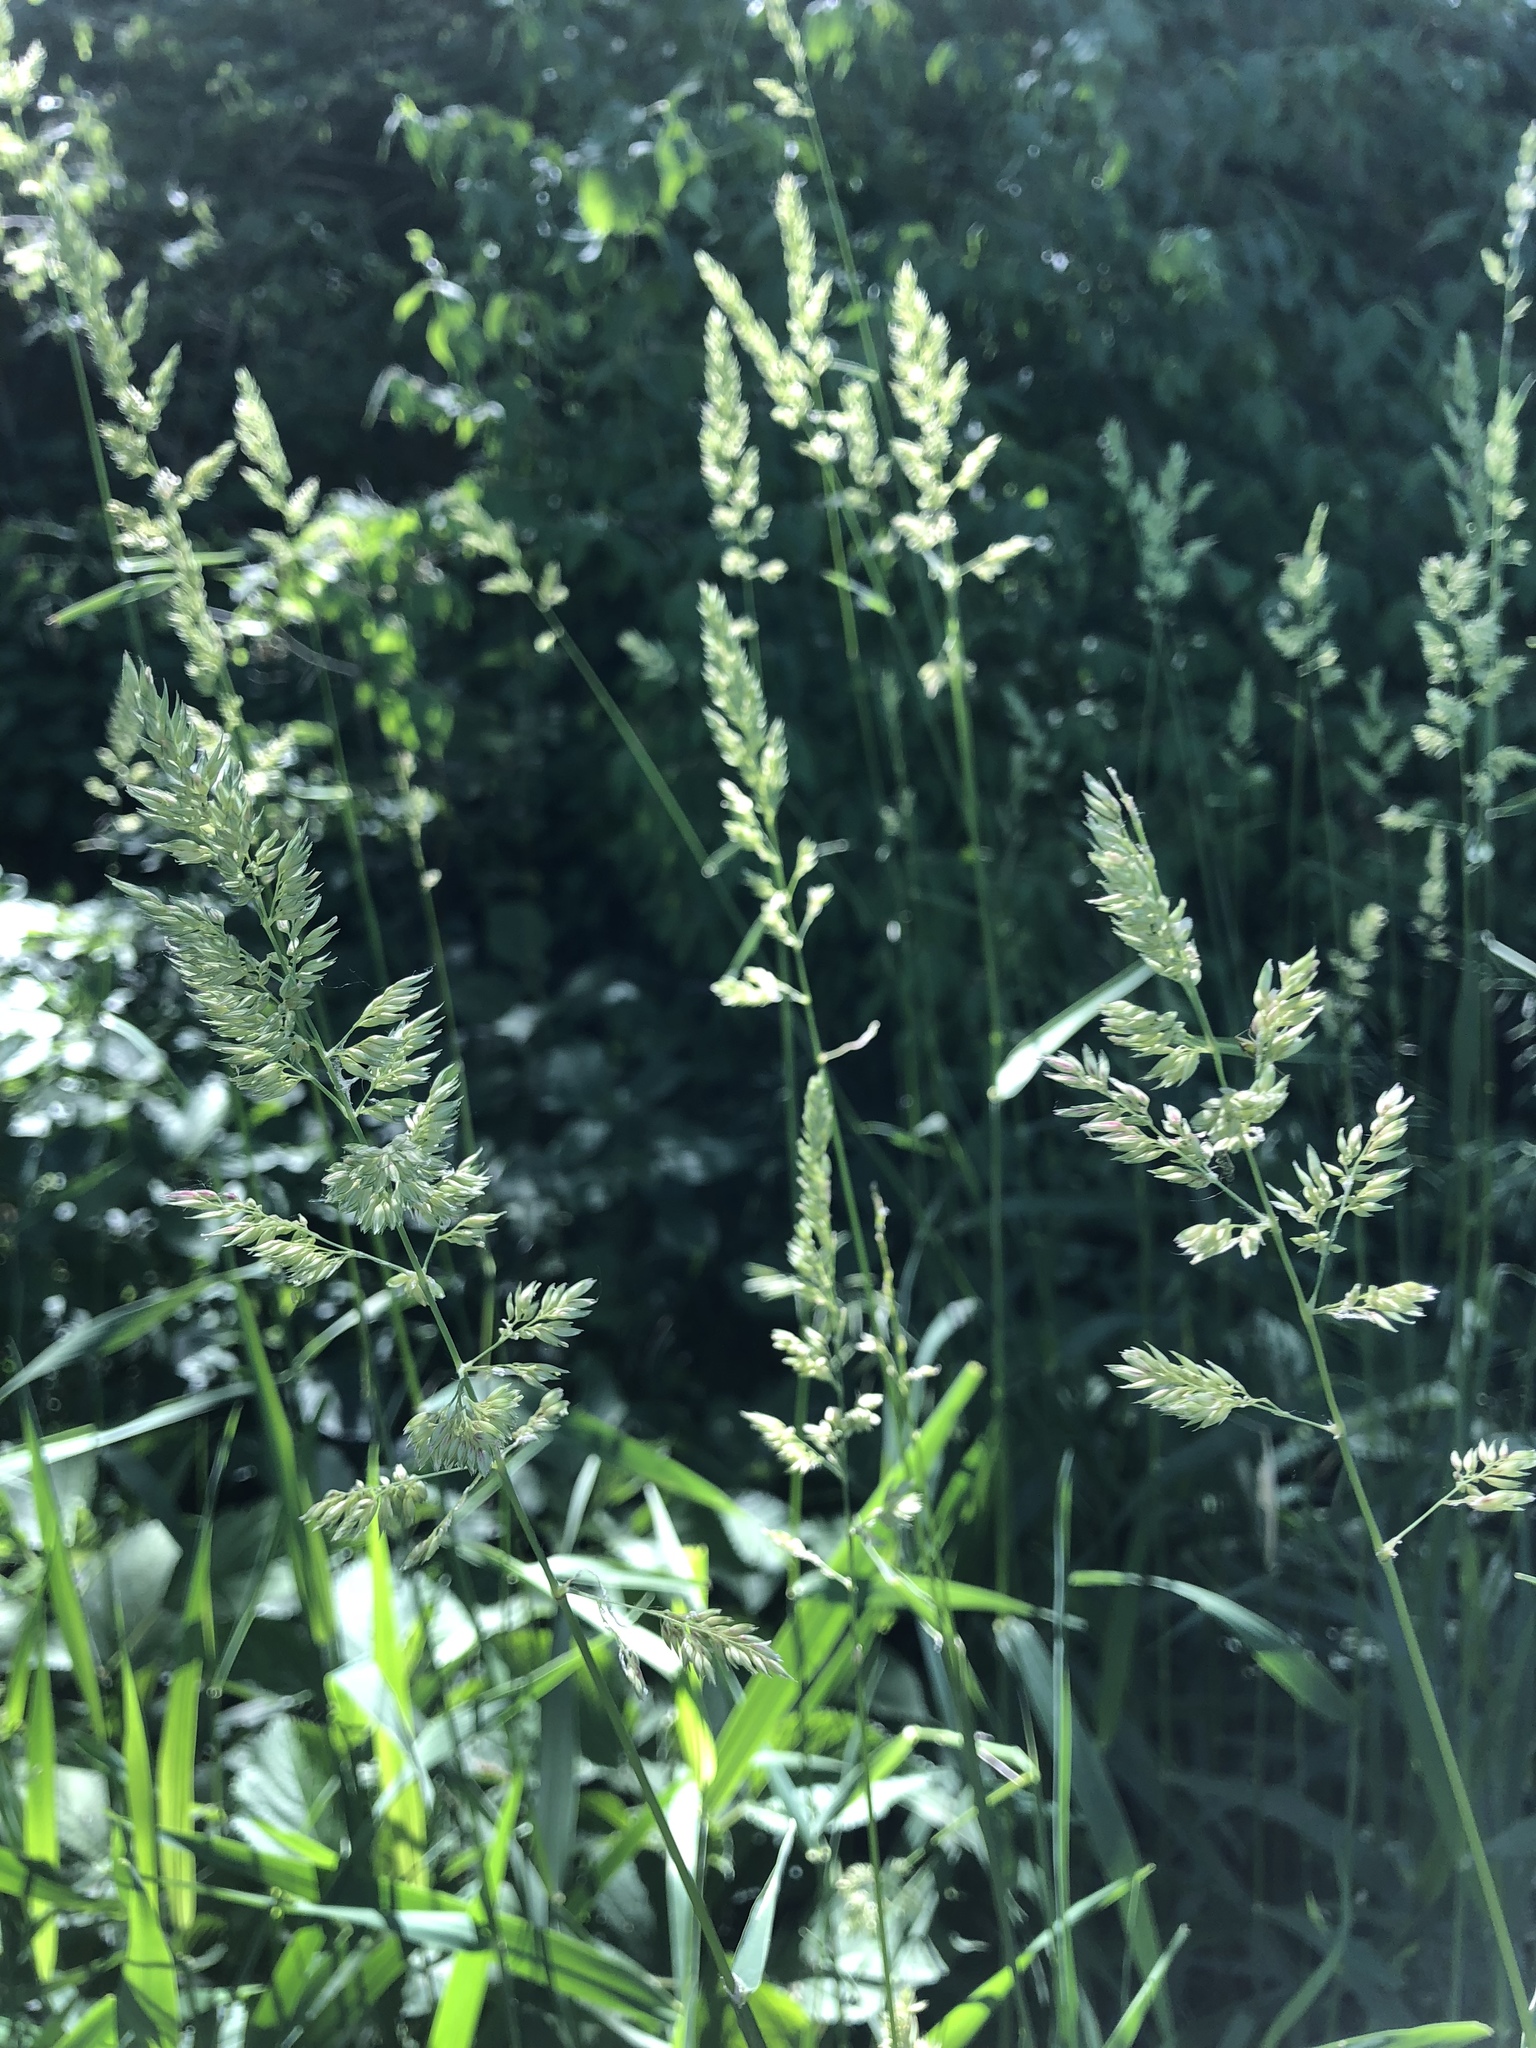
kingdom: Plantae
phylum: Tracheophyta
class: Liliopsida
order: Poales
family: Poaceae
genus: Phalaris
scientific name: Phalaris arundinacea
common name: Reed canary-grass
